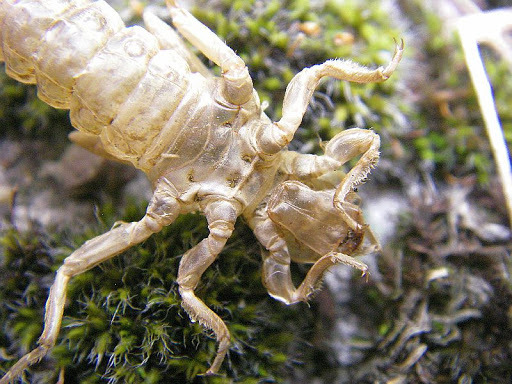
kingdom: Animalia
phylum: Arthropoda
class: Insecta
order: Odonata
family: Gomphidae
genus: Stylurus
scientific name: Stylurus flavipes
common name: River clubtail
